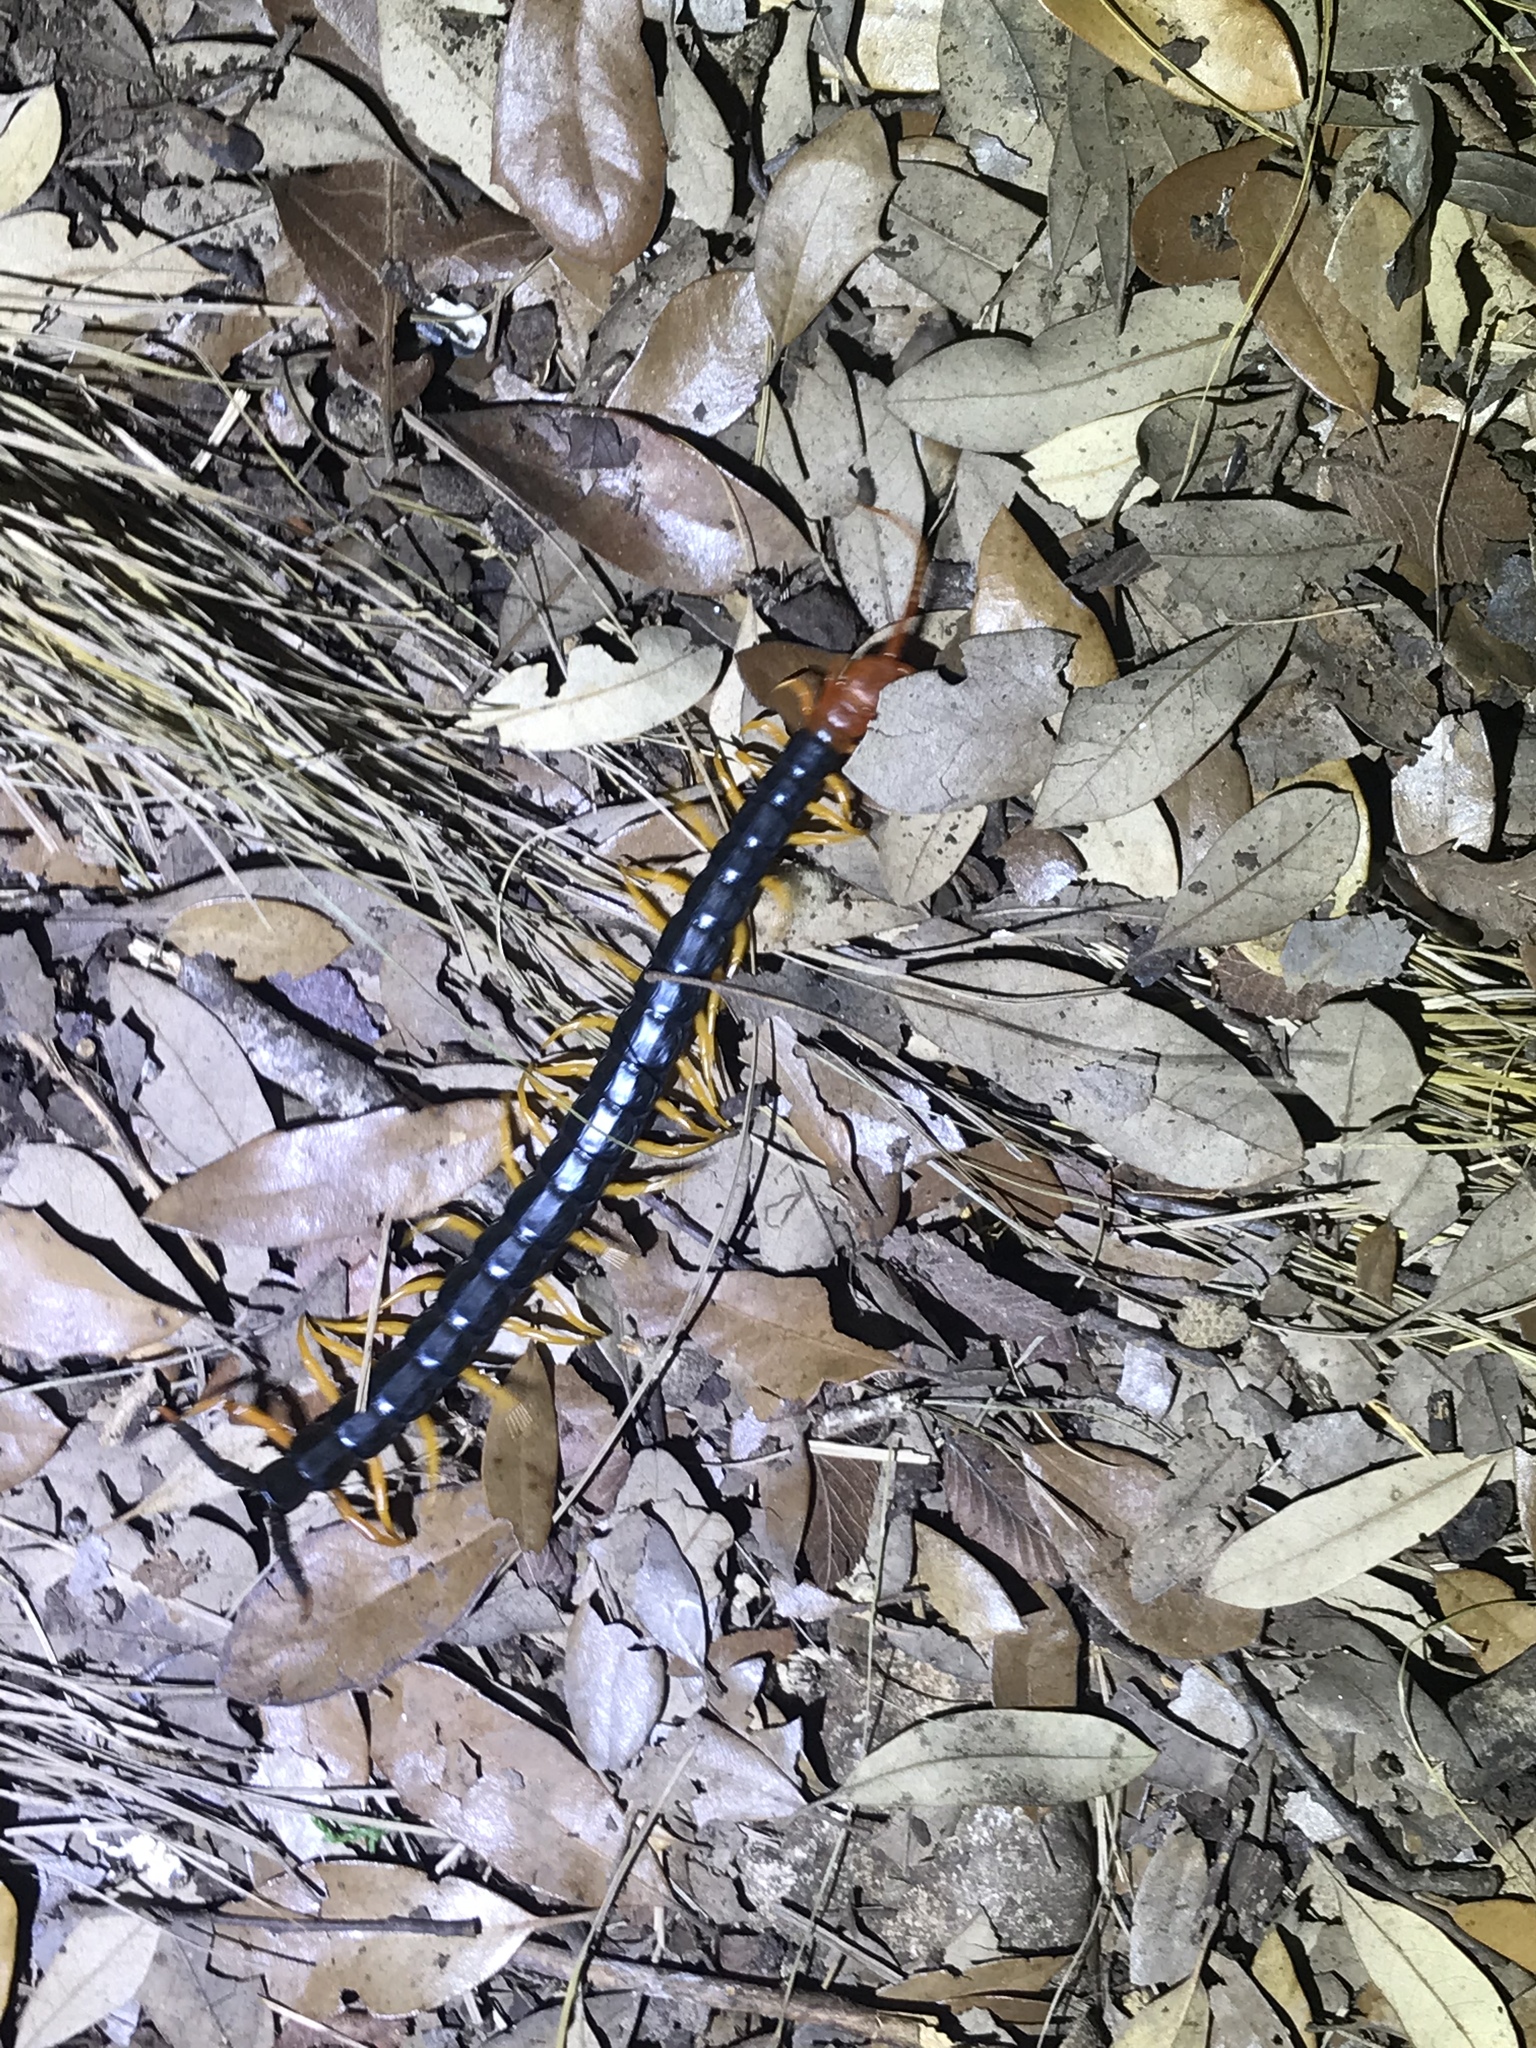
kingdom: Animalia
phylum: Arthropoda
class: Chilopoda
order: Scolopendromorpha
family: Scolopendridae
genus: Scolopendra
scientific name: Scolopendra heros
